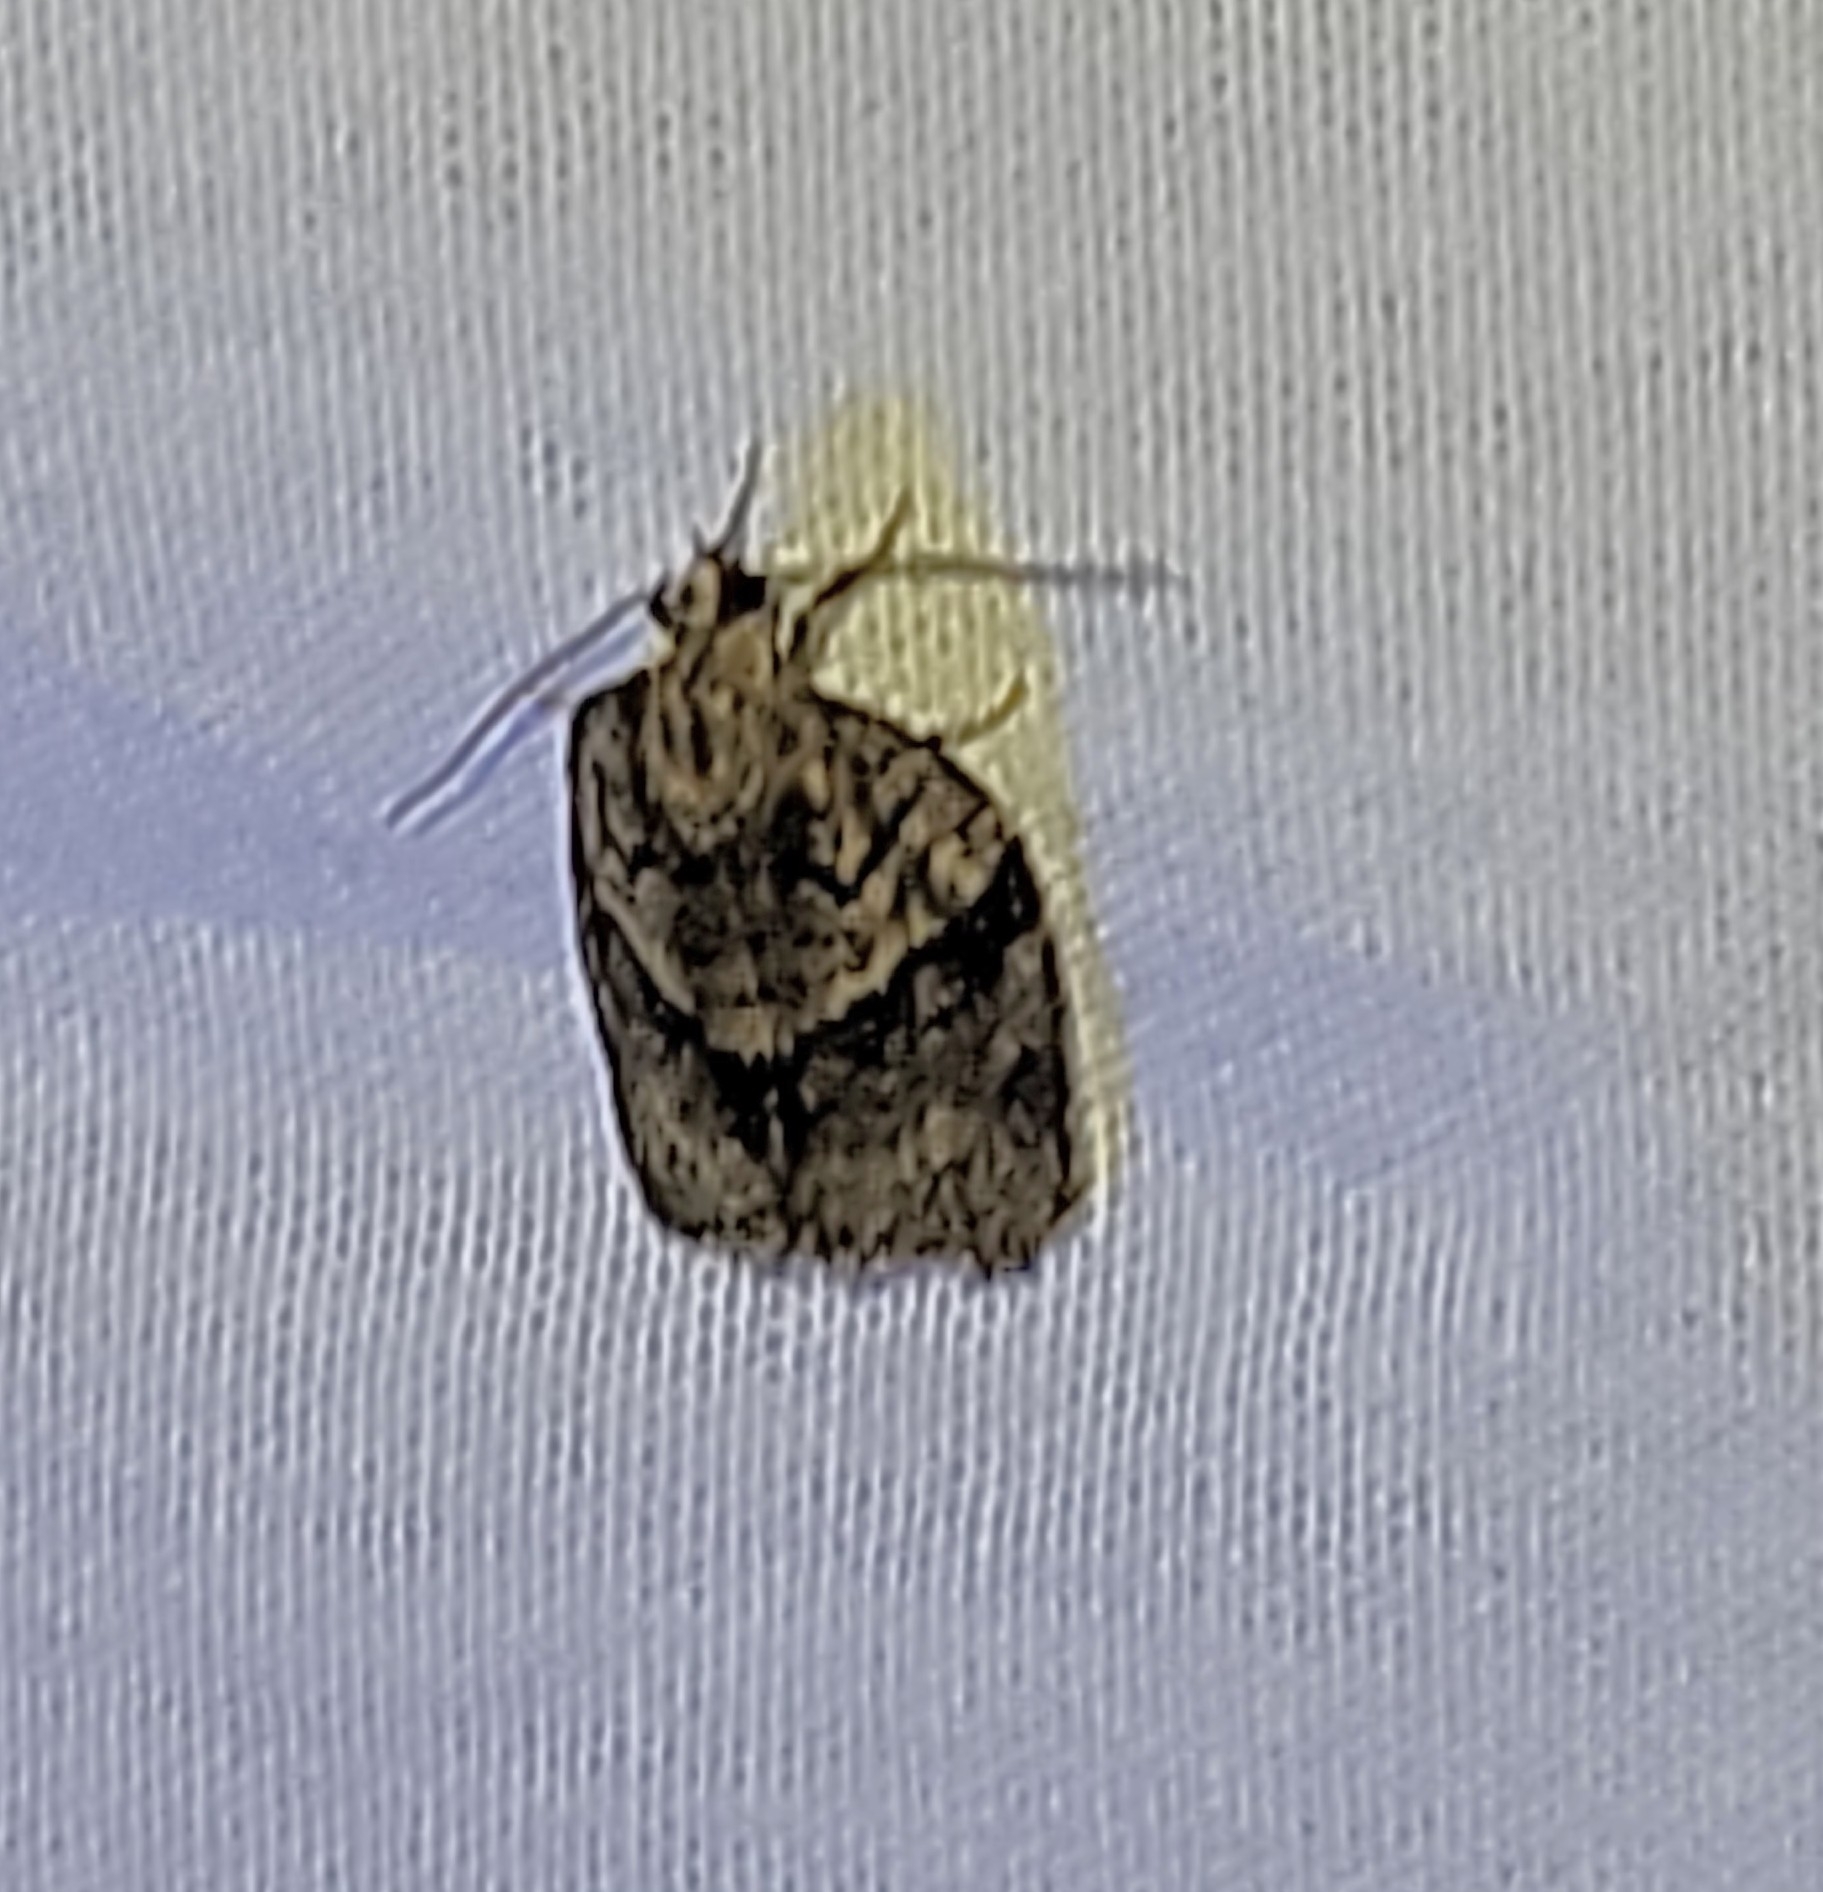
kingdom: Animalia
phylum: Arthropoda
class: Insecta
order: Lepidoptera
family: Tortricidae
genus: Syndemis
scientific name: Syndemis afflictana
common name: Gray leafroller moth
